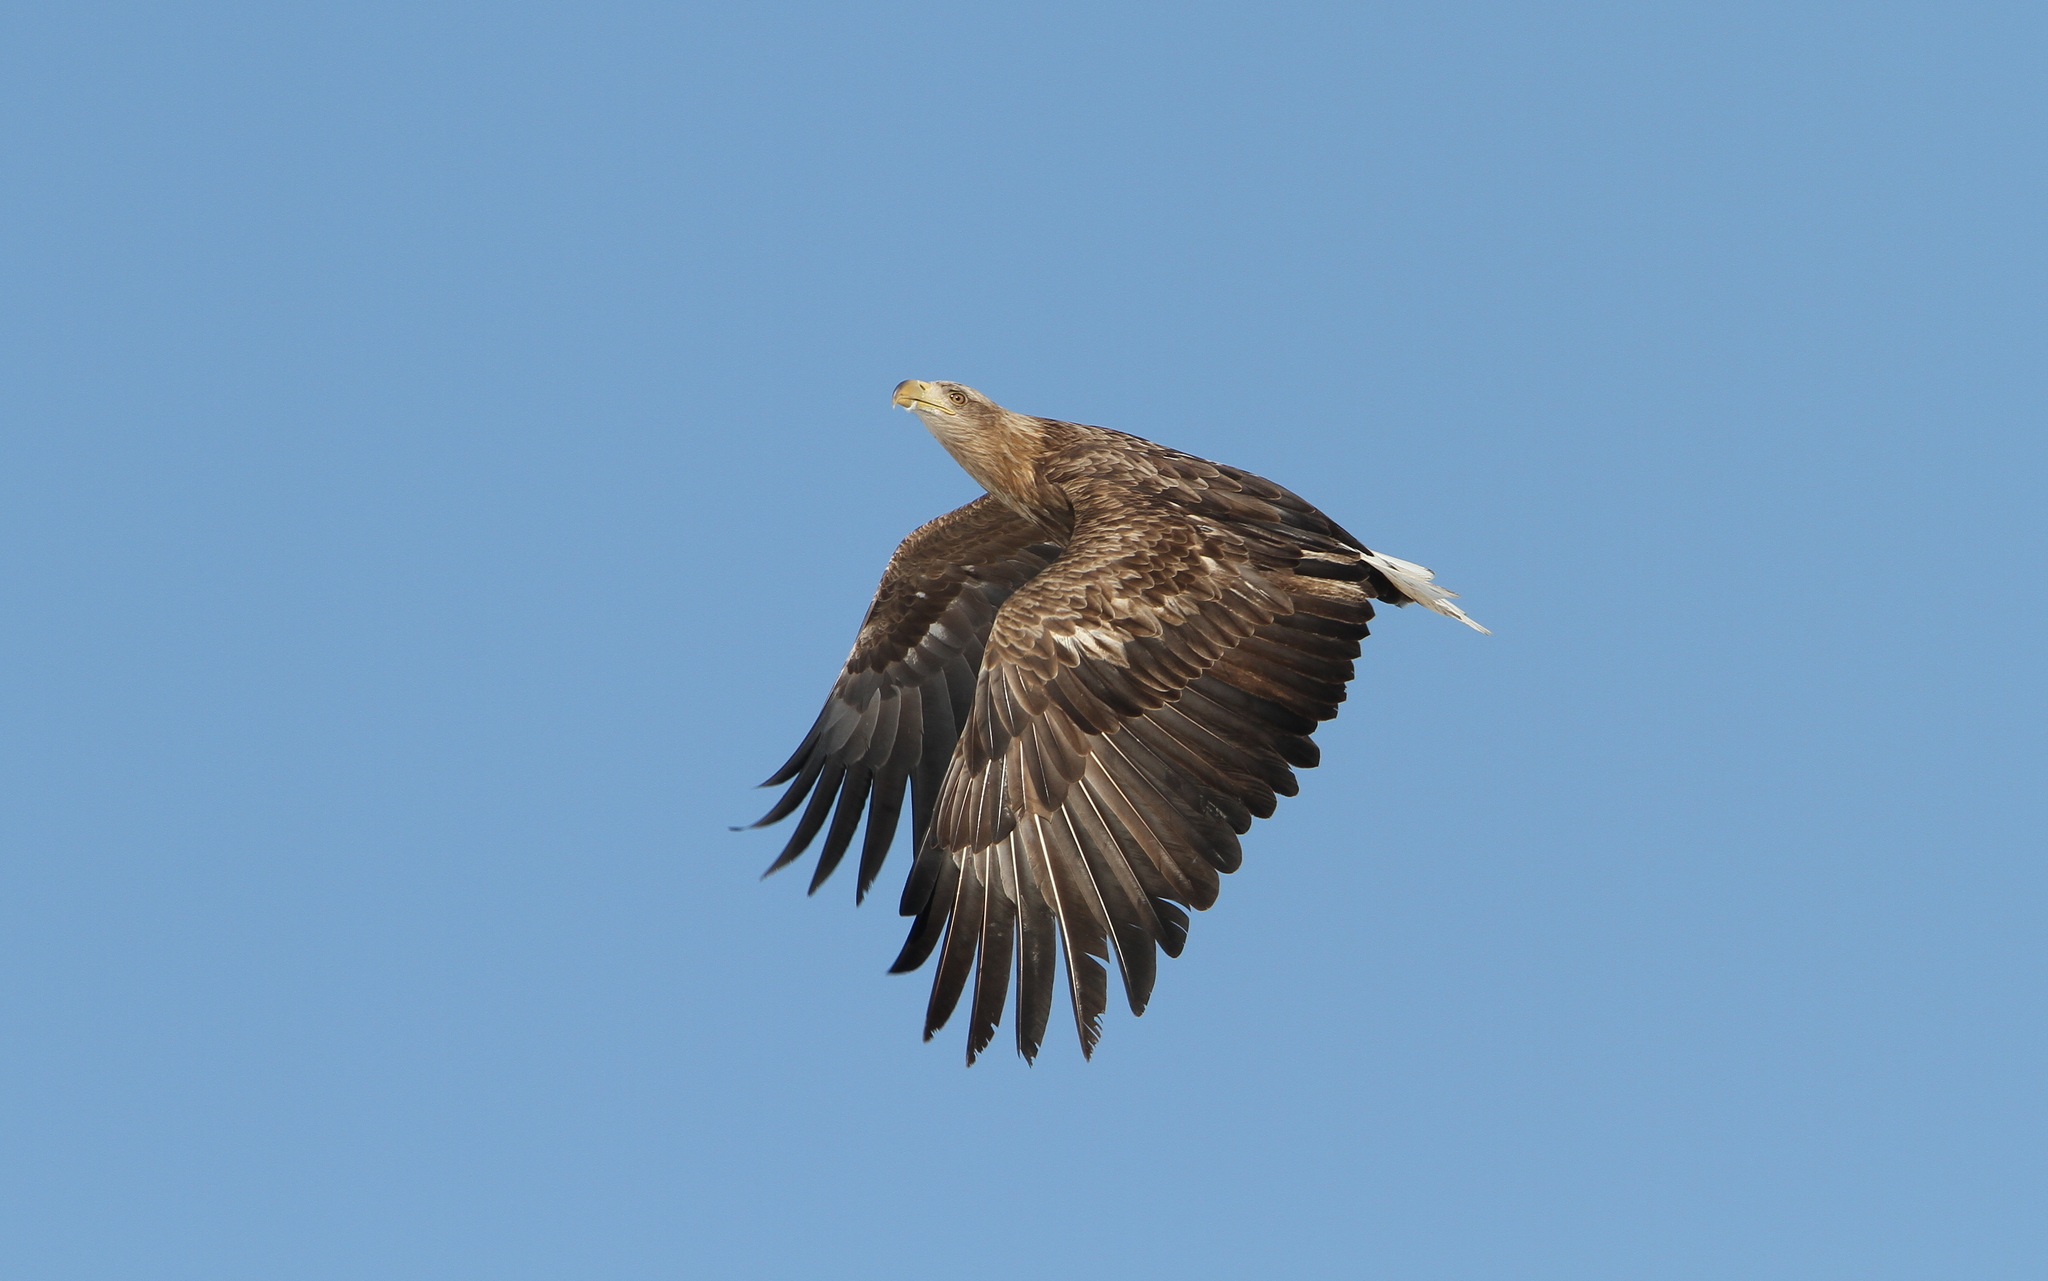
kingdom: Animalia
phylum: Chordata
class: Aves
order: Accipitriformes
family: Accipitridae
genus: Haliaeetus
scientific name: Haliaeetus albicilla
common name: White-tailed eagle
